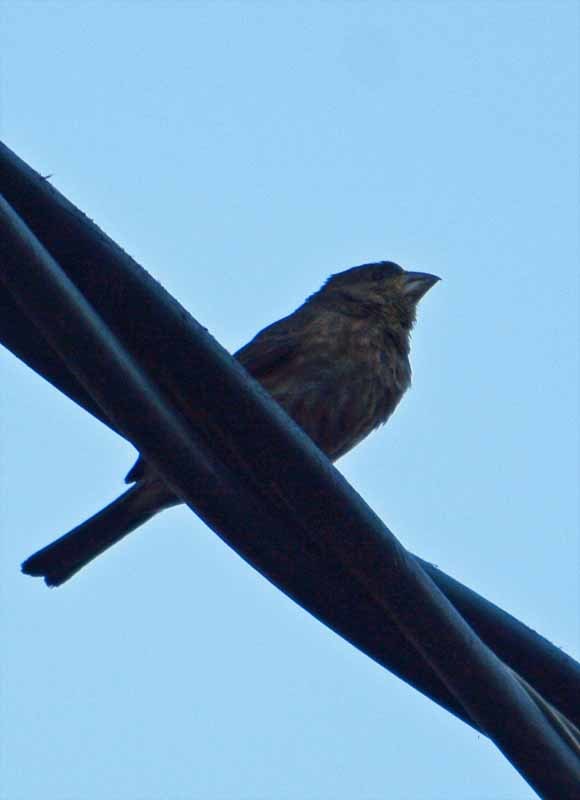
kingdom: Animalia
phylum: Chordata
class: Aves
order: Passeriformes
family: Fringillidae
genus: Haemorhous
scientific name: Haemorhous mexicanus
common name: House finch
